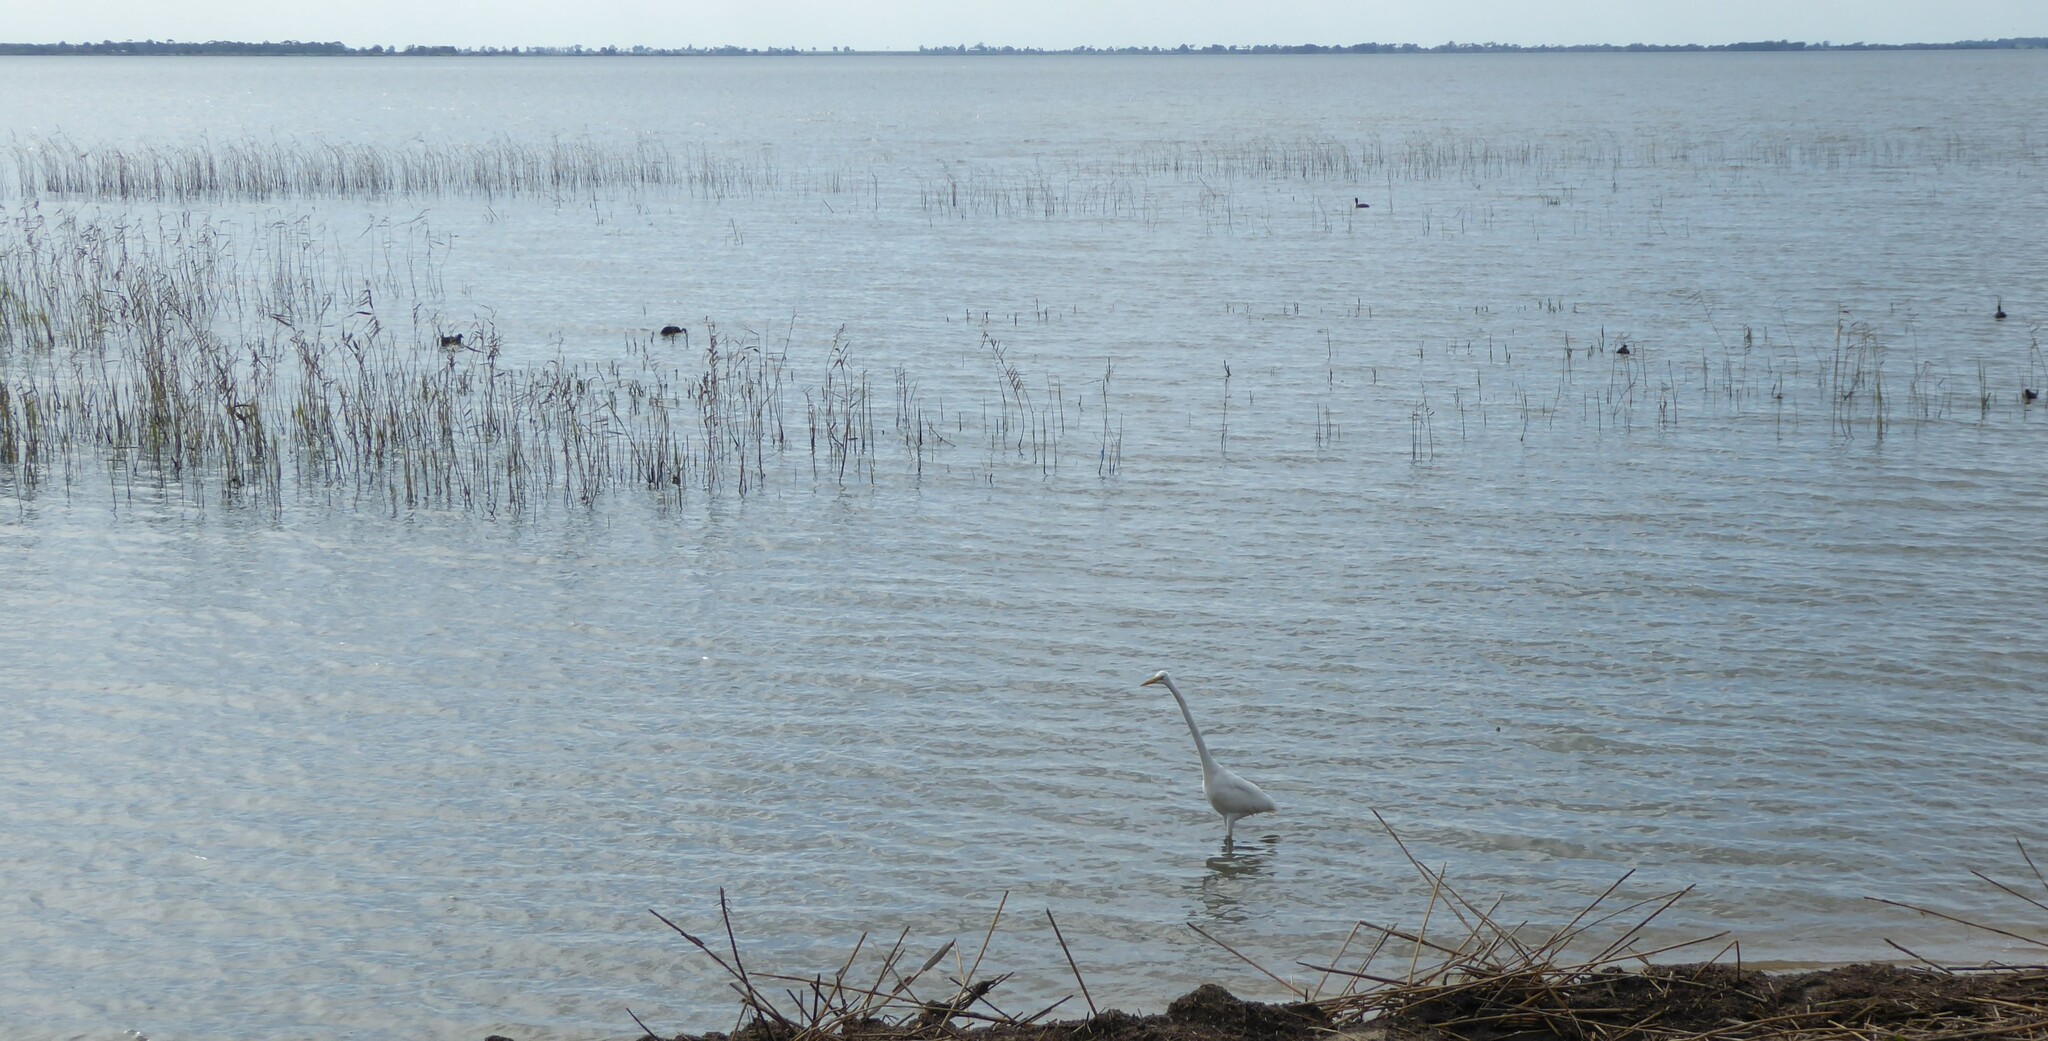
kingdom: Animalia
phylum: Chordata
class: Aves
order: Pelecaniformes
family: Ardeidae
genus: Ardea
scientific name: Ardea alba
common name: Great egret
